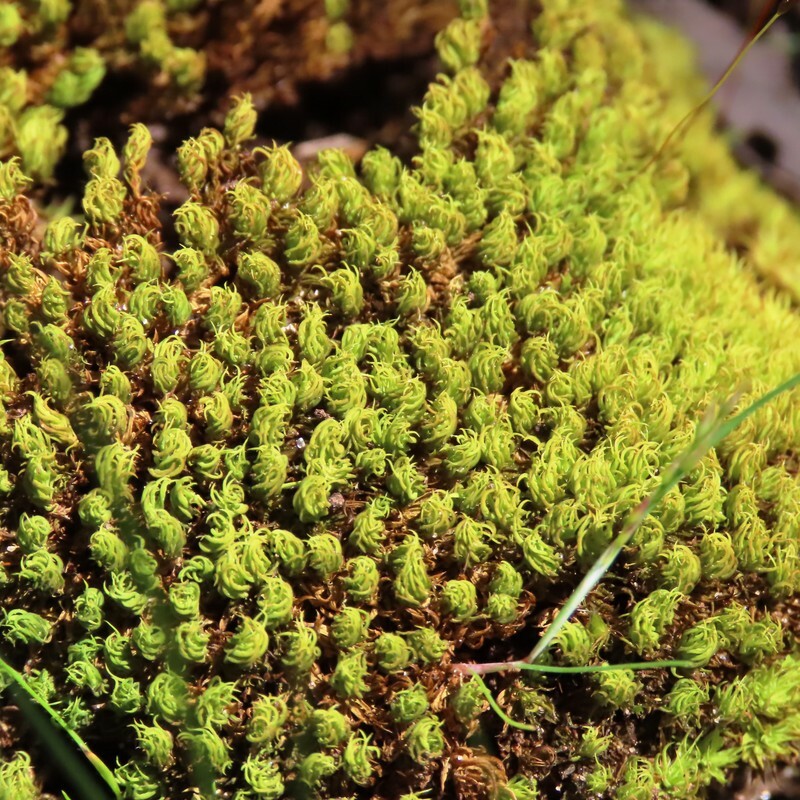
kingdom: Plantae
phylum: Bryophyta
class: Bryopsida
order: Pottiales
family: Pottiaceae
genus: Barbula
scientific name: Barbula calycina
